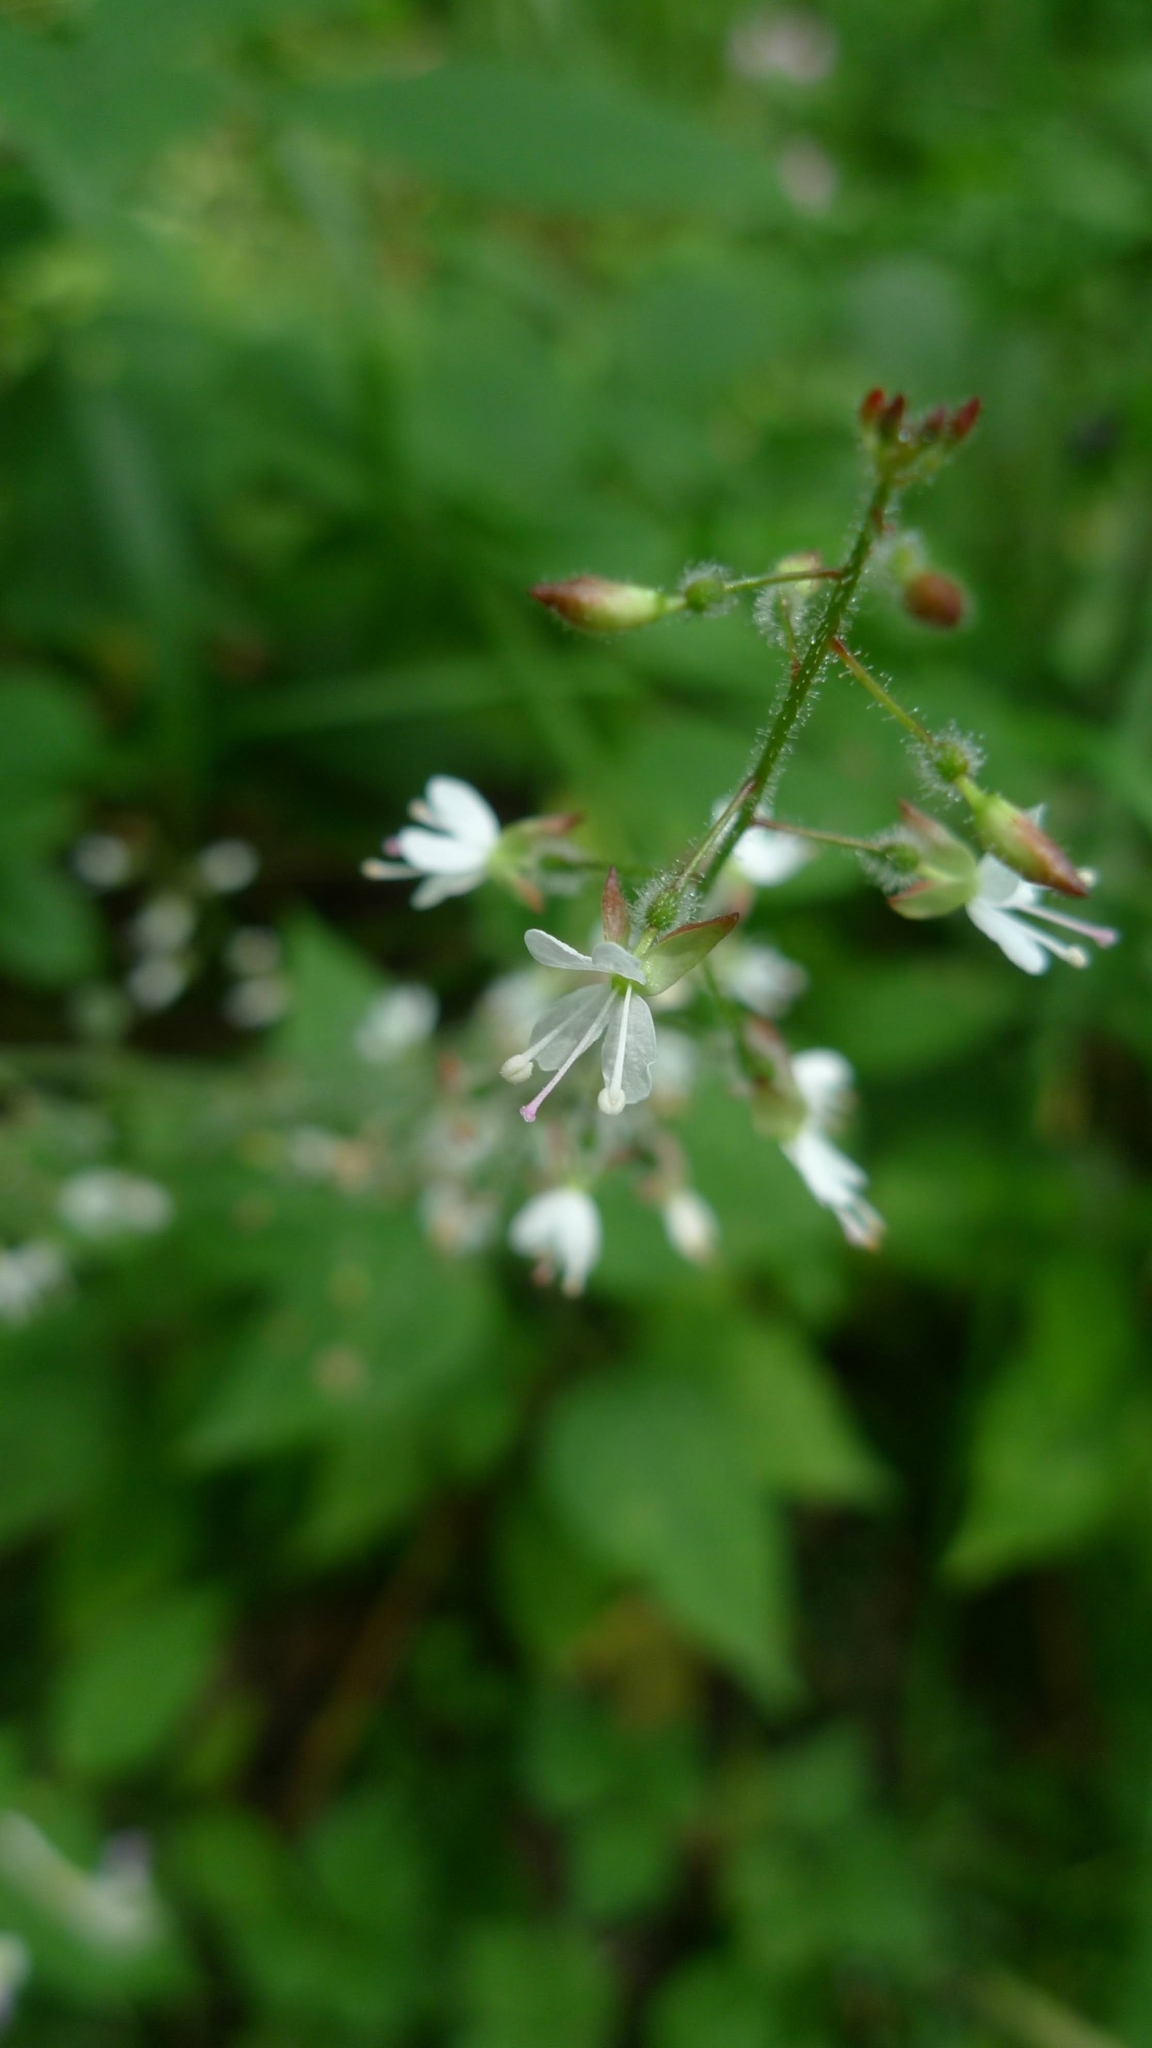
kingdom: Plantae
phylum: Tracheophyta
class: Magnoliopsida
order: Myrtales
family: Onagraceae
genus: Circaea
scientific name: Circaea lutetiana
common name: Enchanter's-nightshade
